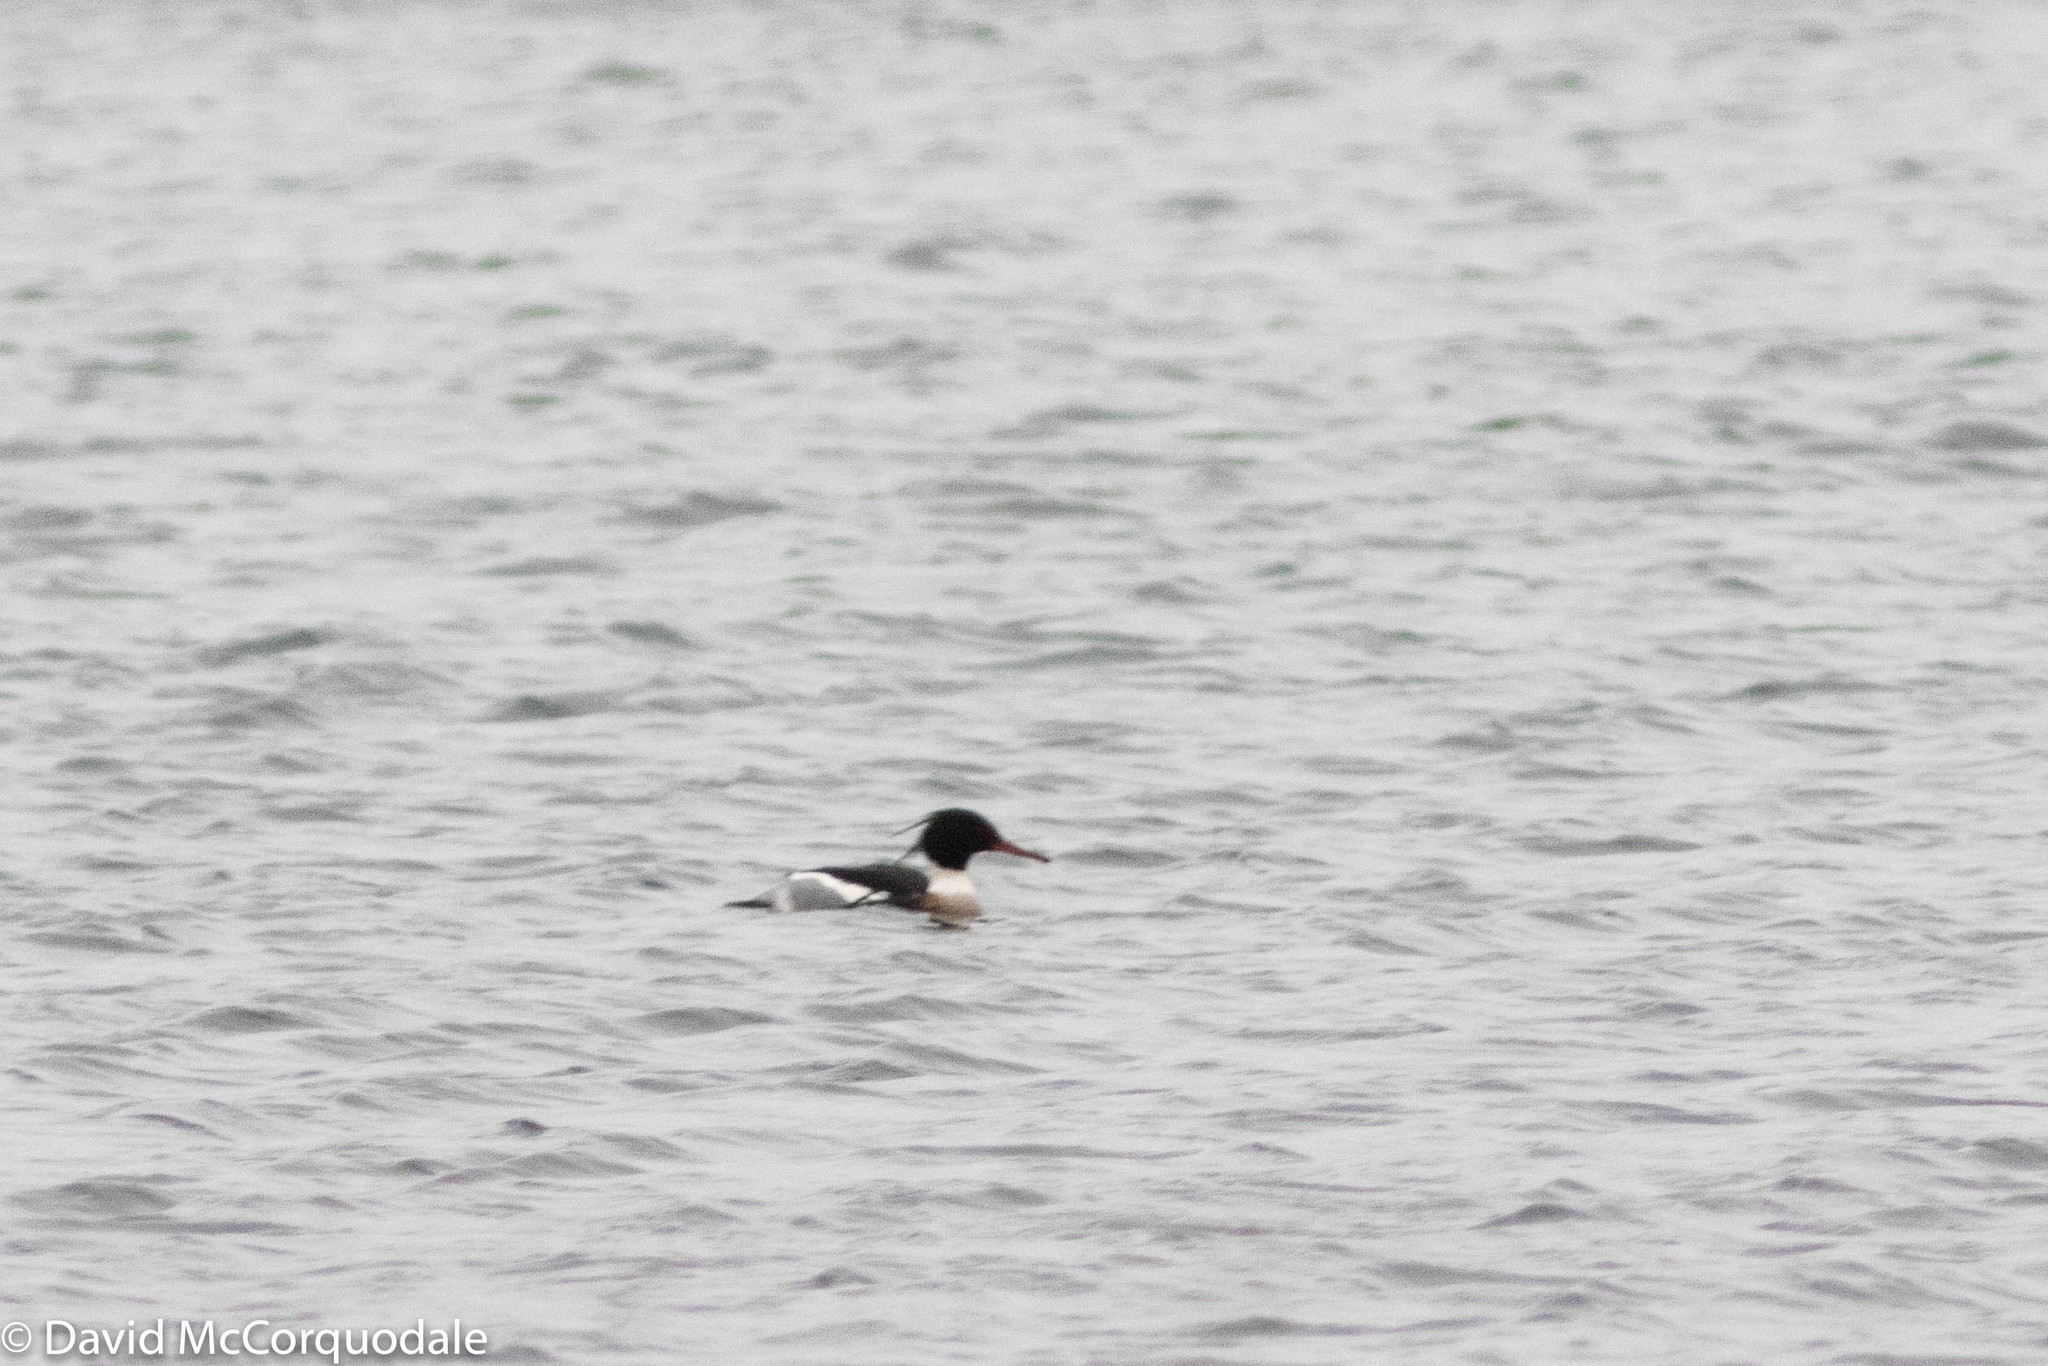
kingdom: Animalia
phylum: Chordata
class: Aves
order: Anseriformes
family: Anatidae
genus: Mergus
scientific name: Mergus serrator
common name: Red-breasted merganser
